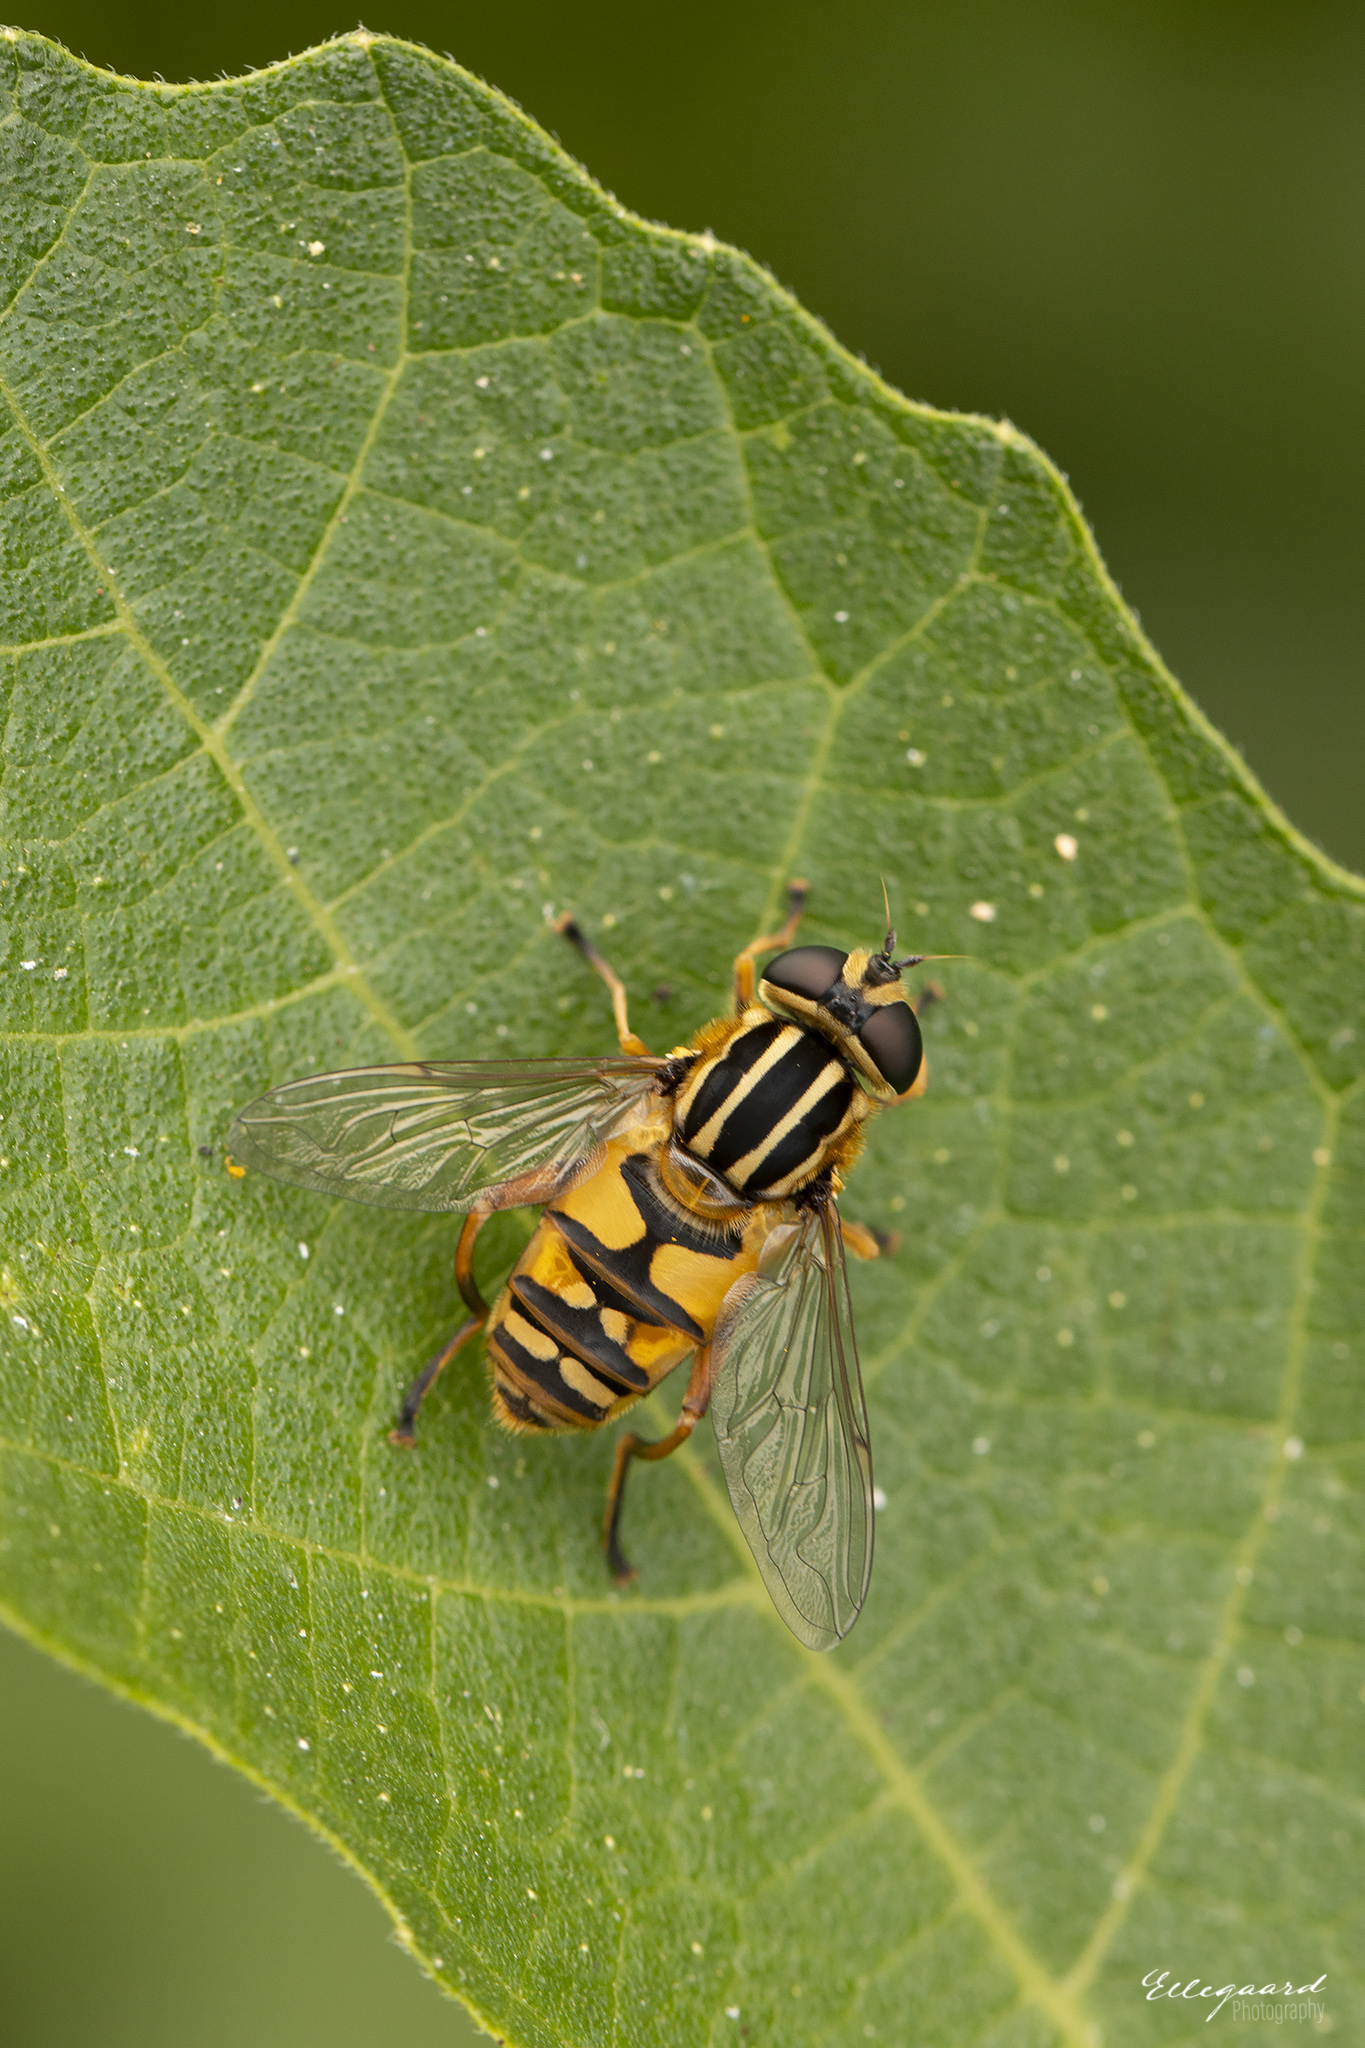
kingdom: Animalia
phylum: Arthropoda
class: Insecta
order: Diptera
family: Syrphidae
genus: Helophilus
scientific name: Helophilus pendulus
